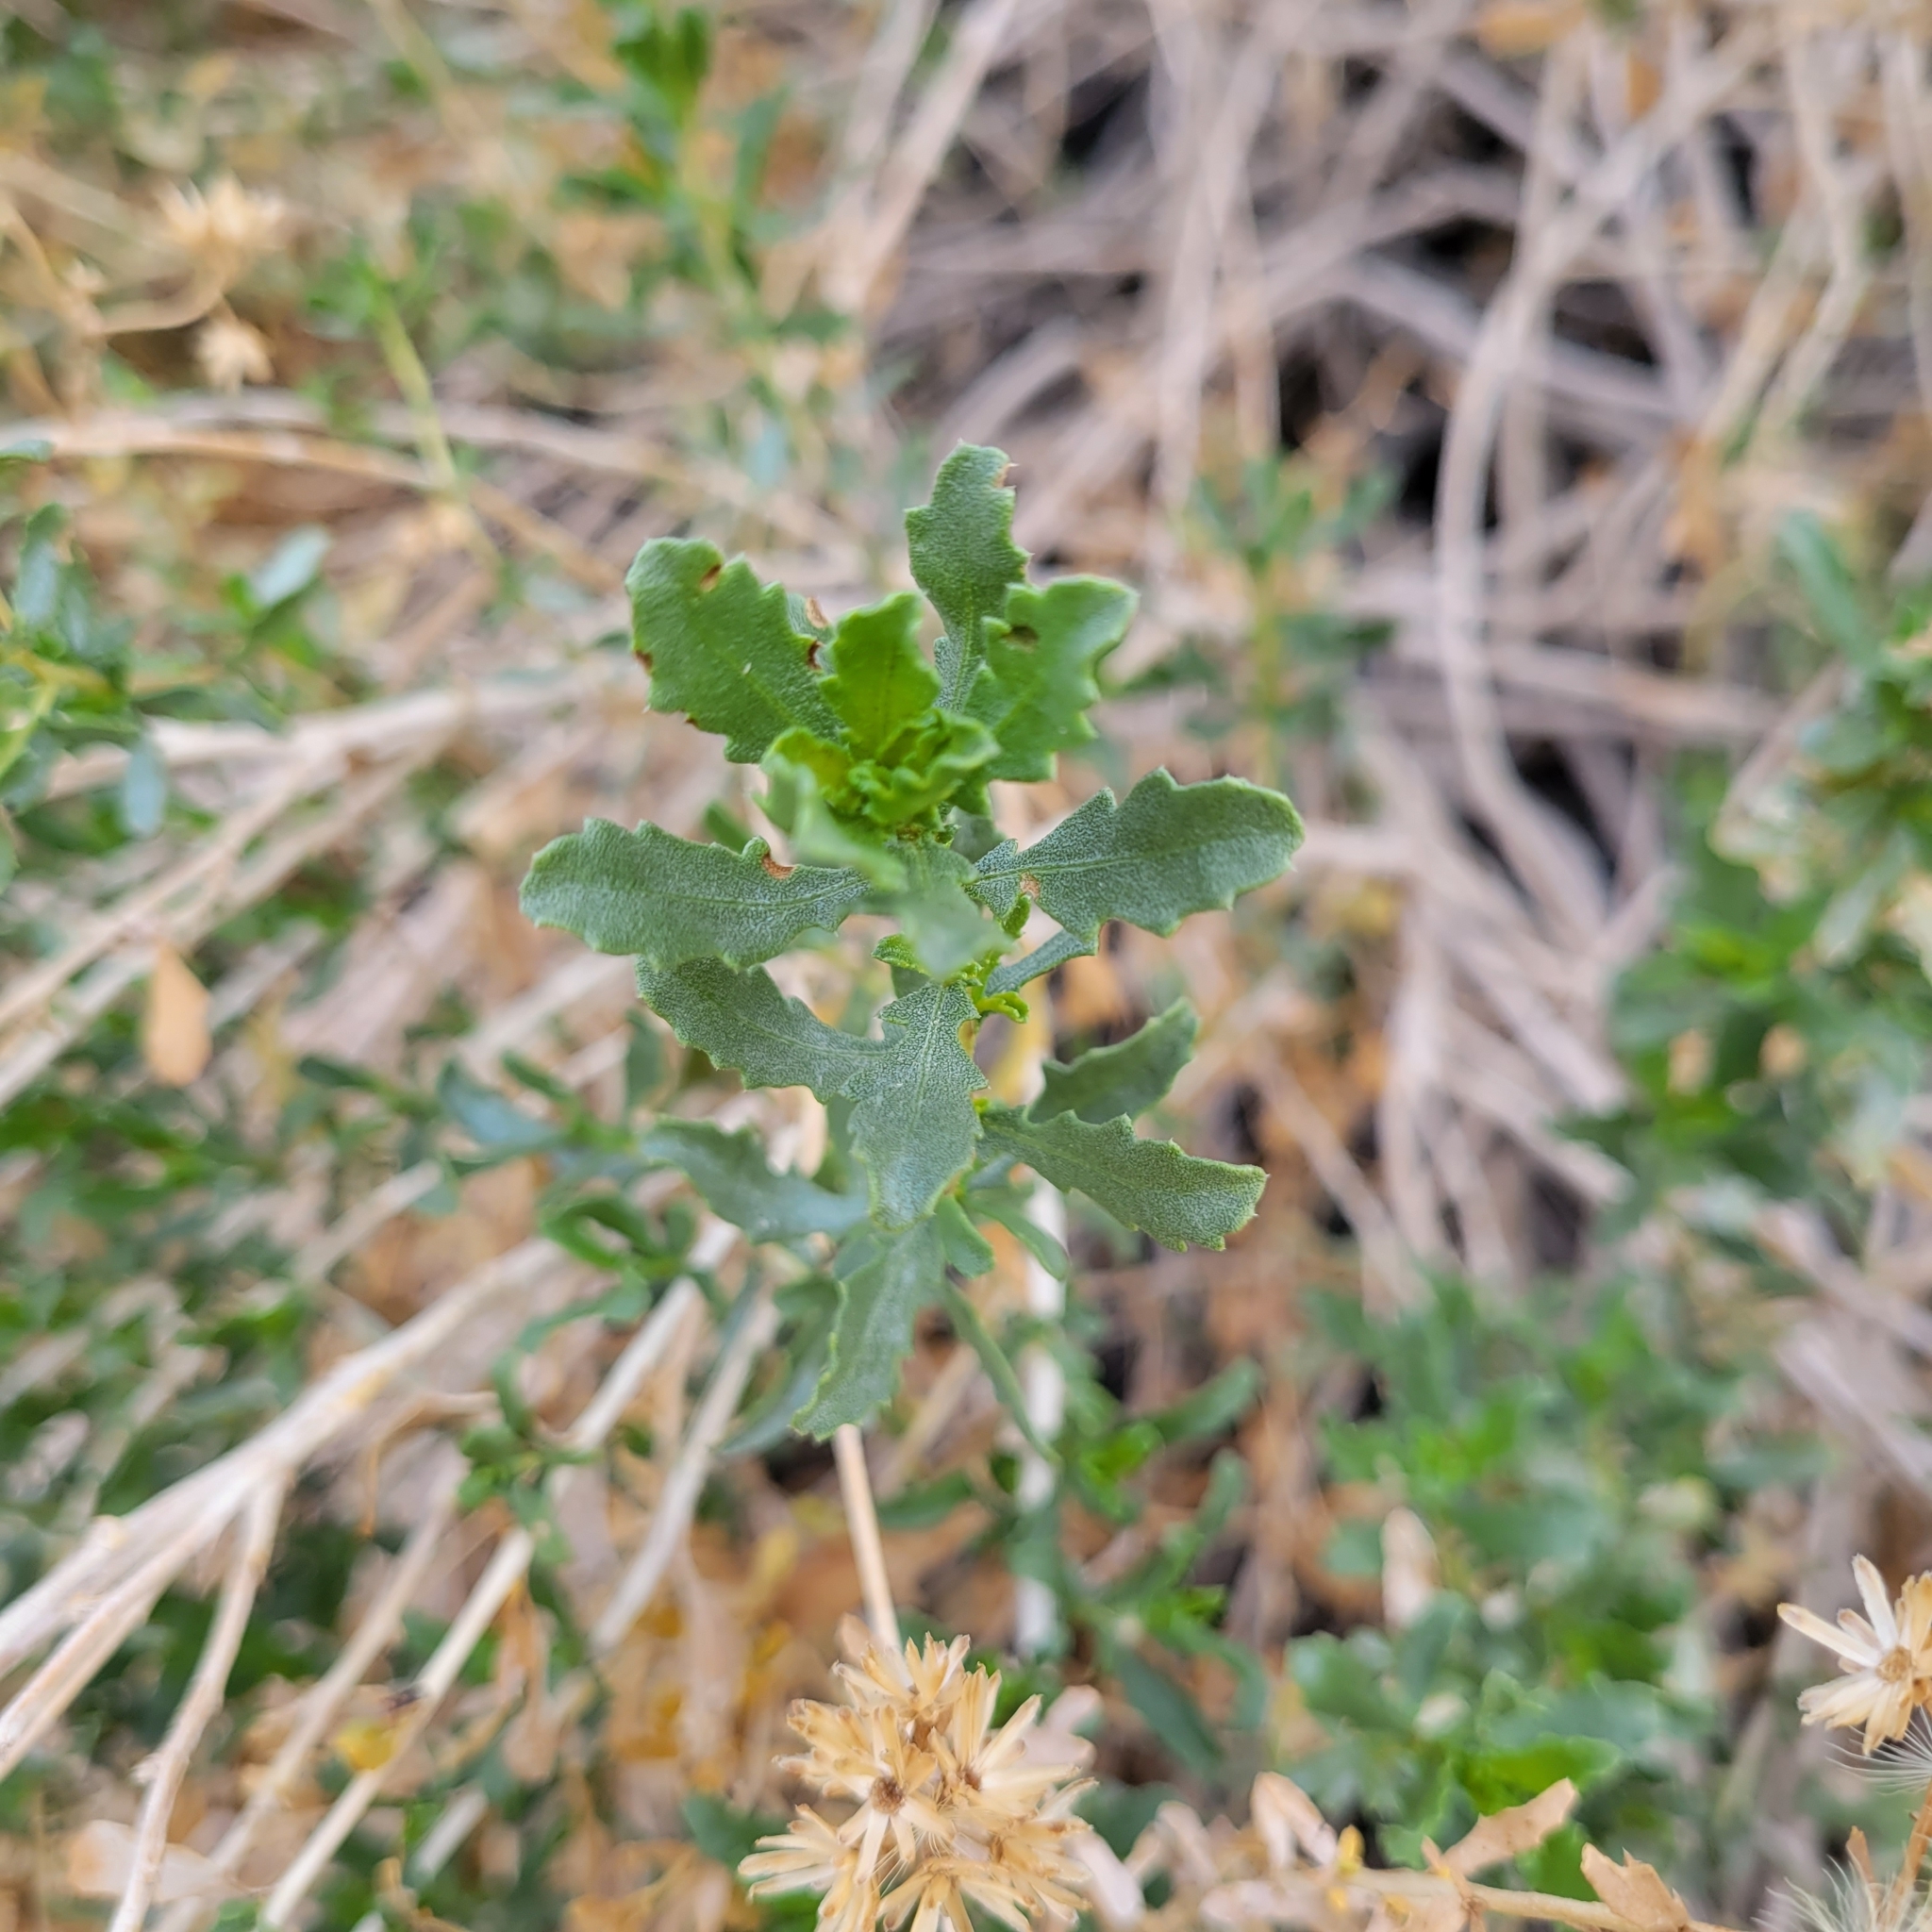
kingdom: Plantae
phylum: Tracheophyta
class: Magnoliopsida
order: Asterales
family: Asteraceae
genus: Isocoma
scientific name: Isocoma acradenia
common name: Alkali jimmyweed
